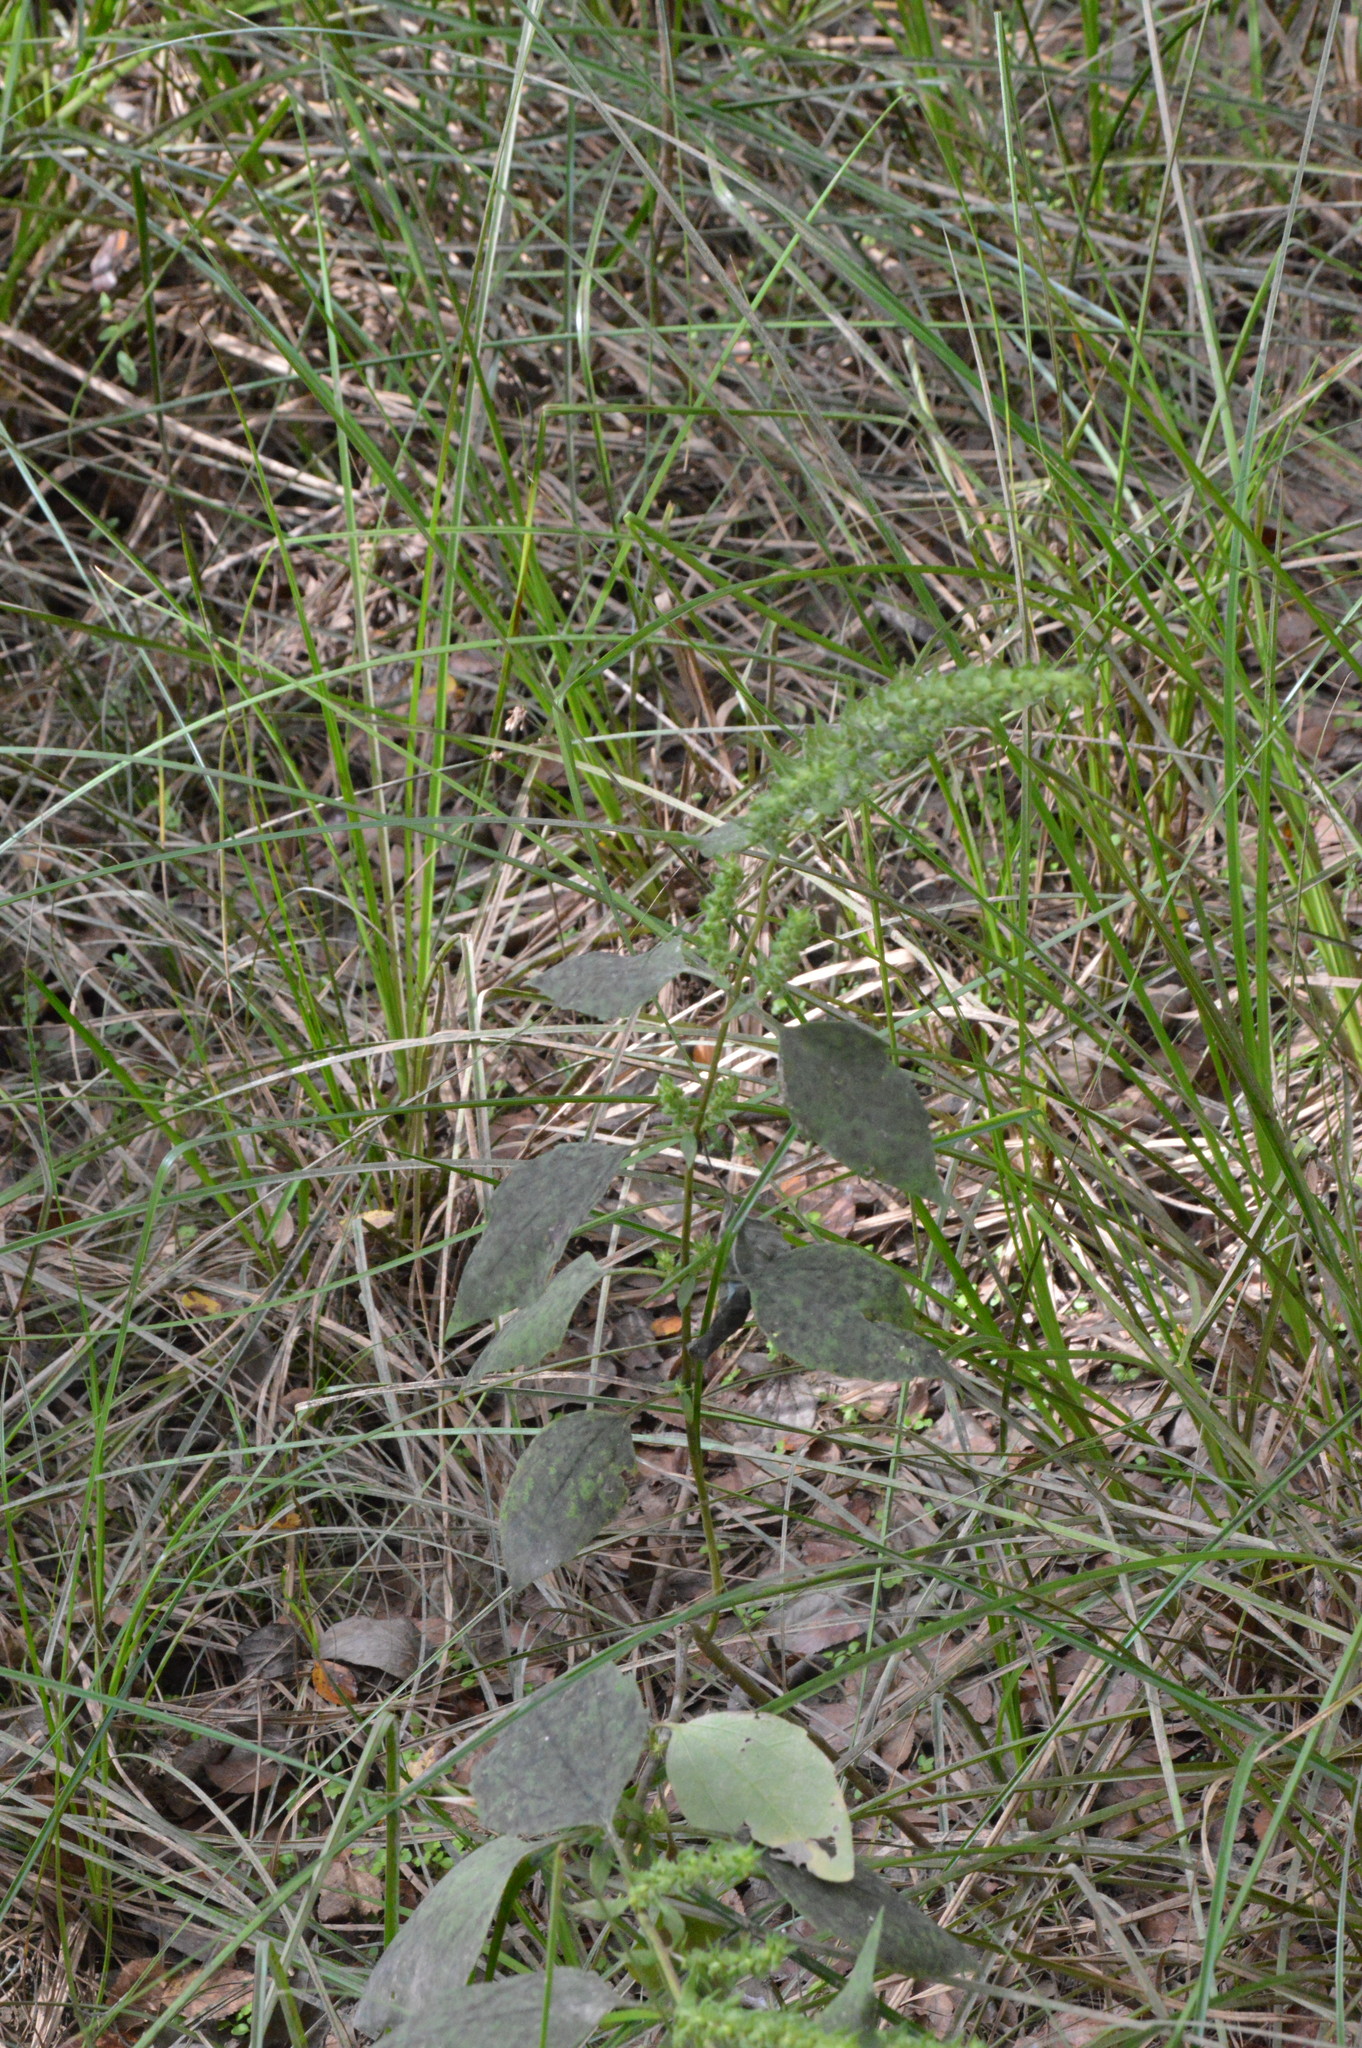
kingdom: Plantae
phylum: Tracheophyta
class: Magnoliopsida
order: Asterales
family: Asteraceae
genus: Iva
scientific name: Iva annua
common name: Marsh-elder
